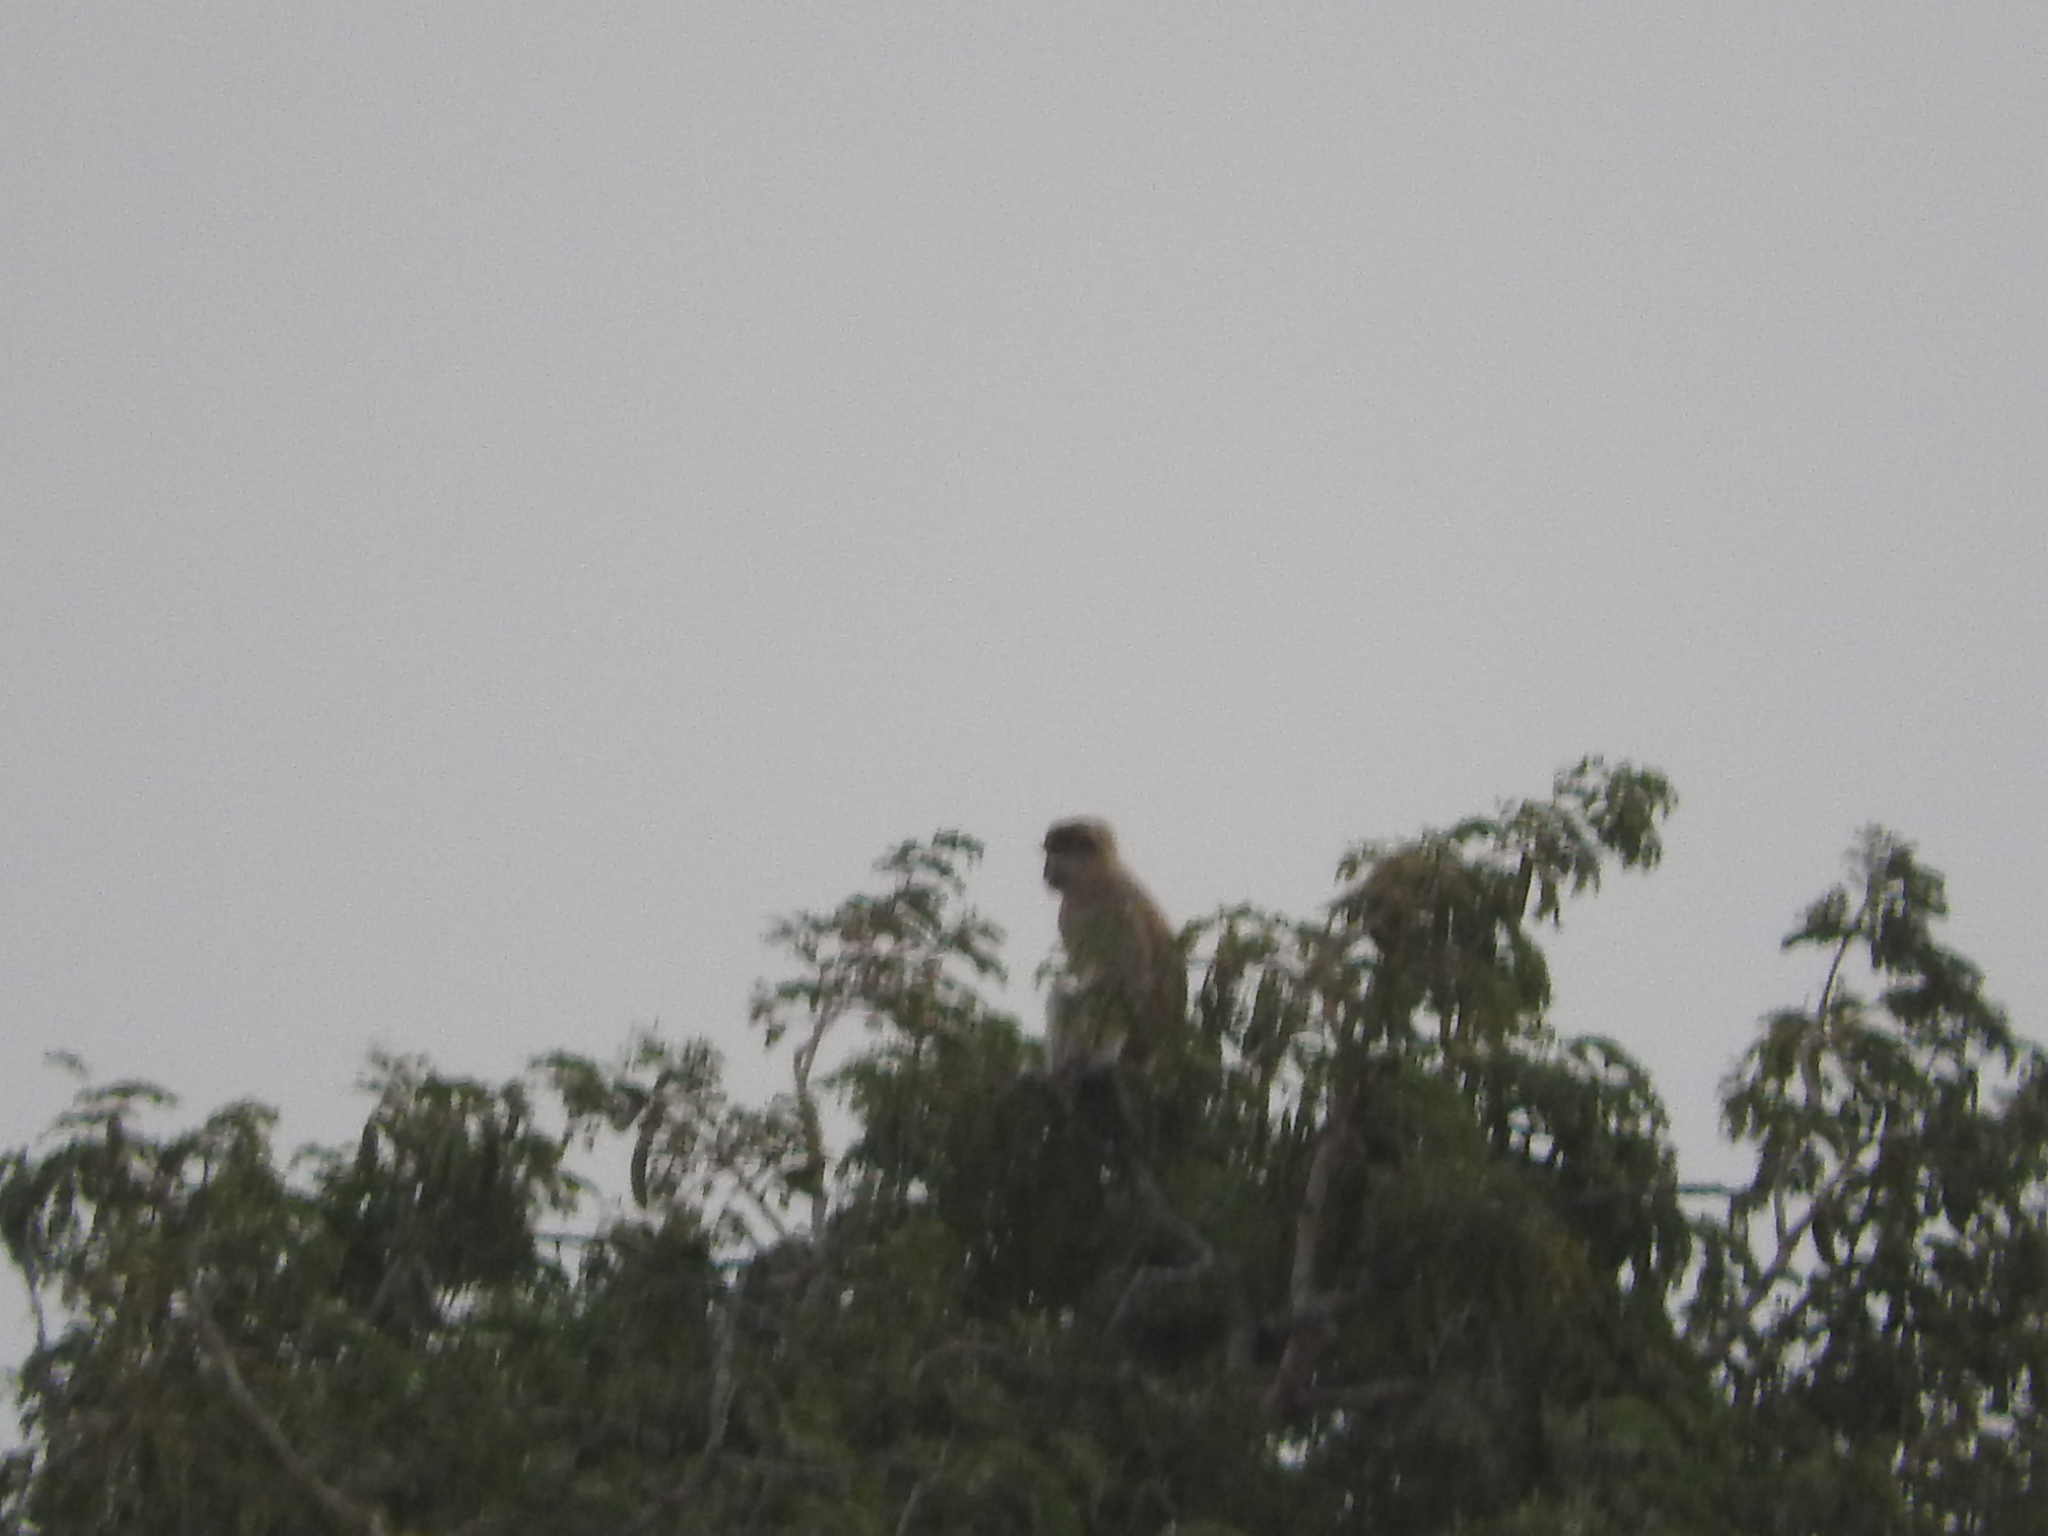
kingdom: Animalia
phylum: Chordata
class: Mammalia
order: Primates
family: Cercopithecidae
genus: Erythrocebus
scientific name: Erythrocebus patas
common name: Patas monkey
